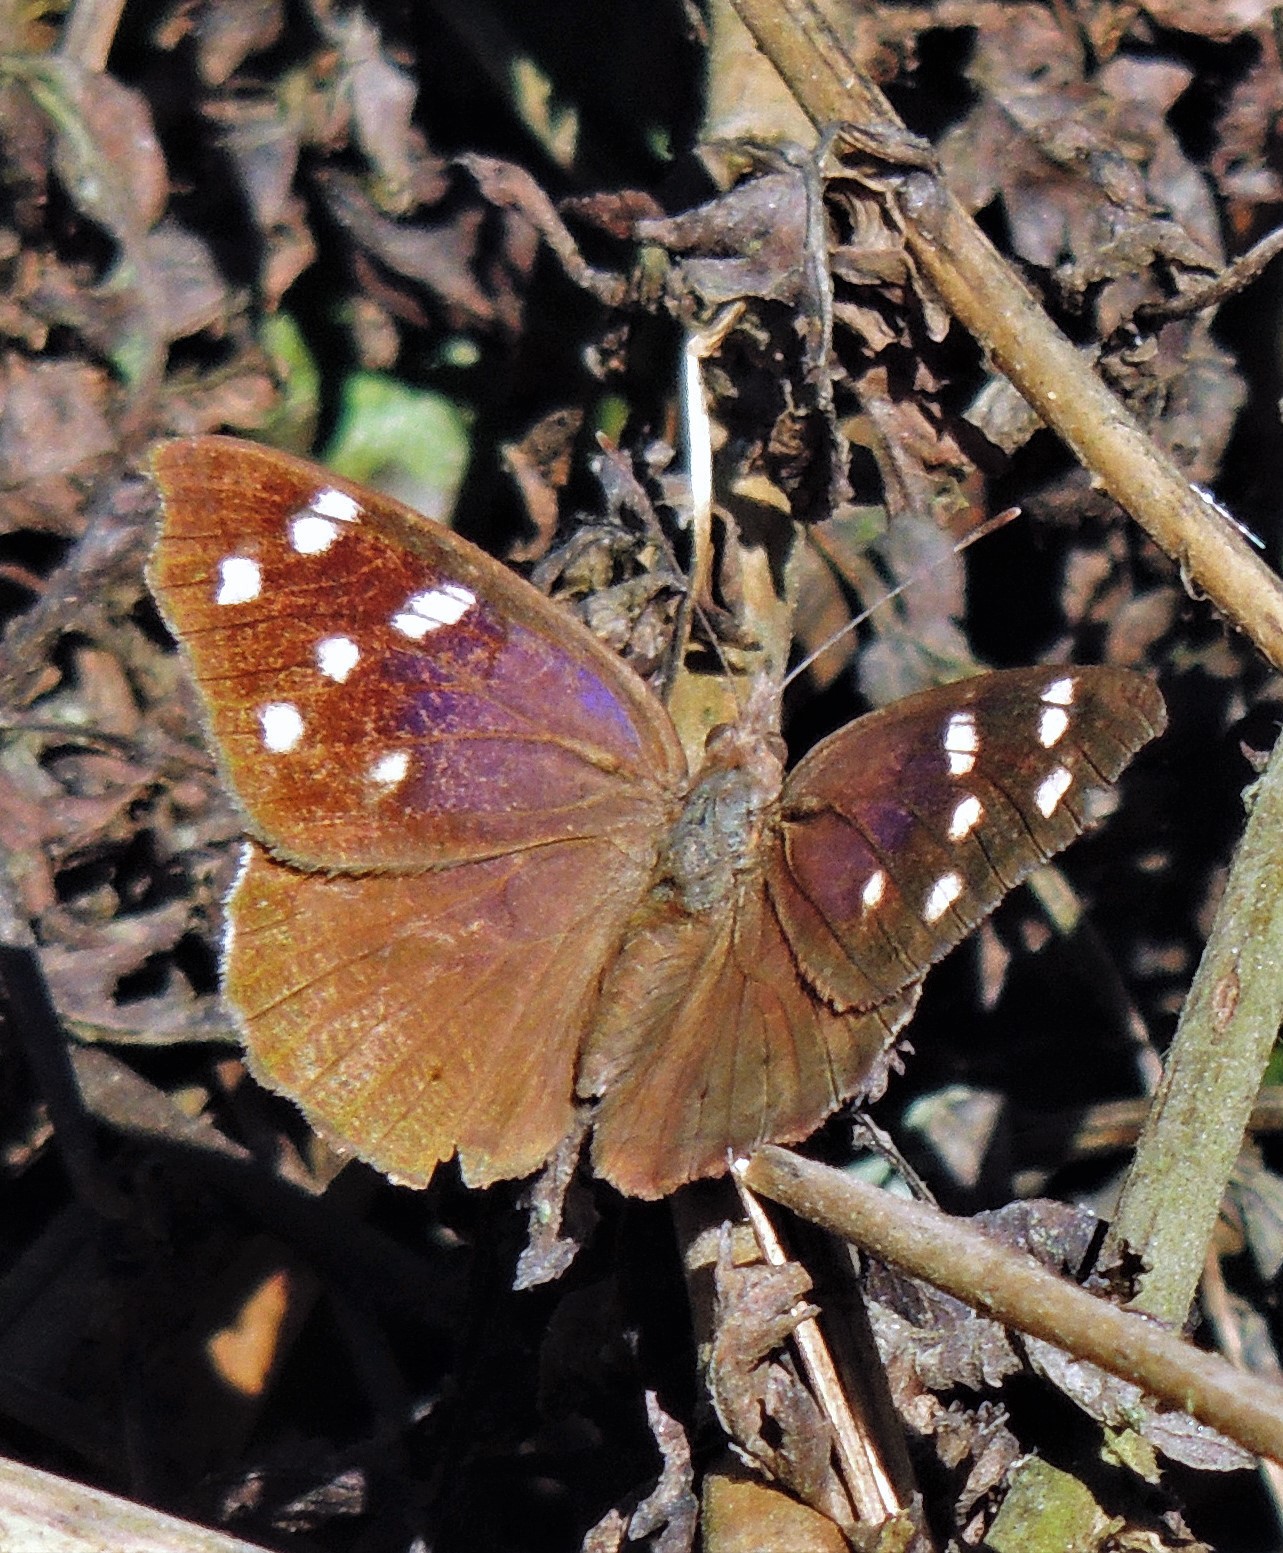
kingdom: Animalia
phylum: Arthropoda
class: Insecta
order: Lepidoptera
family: Nymphalidae
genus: Eunica
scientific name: Eunica tatila
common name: Florida purplewing
